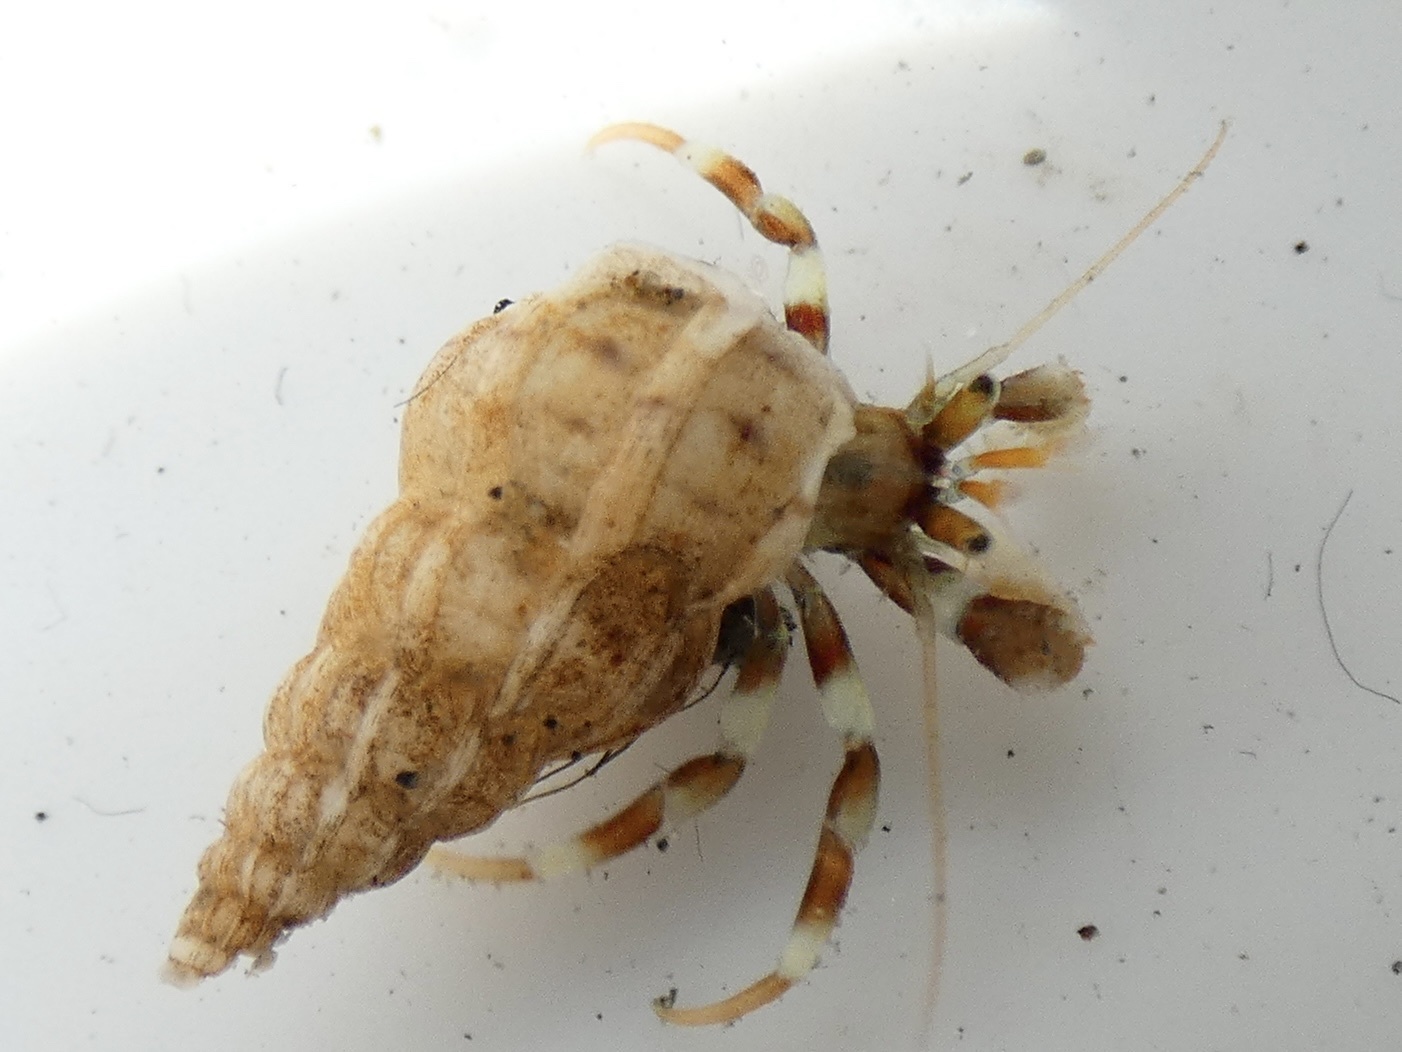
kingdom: Animalia
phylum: Arthropoda
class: Malacostraca
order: Decapoda
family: Paguridae
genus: Pagurus
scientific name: Pagurus bernhardus
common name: Hermit crab
